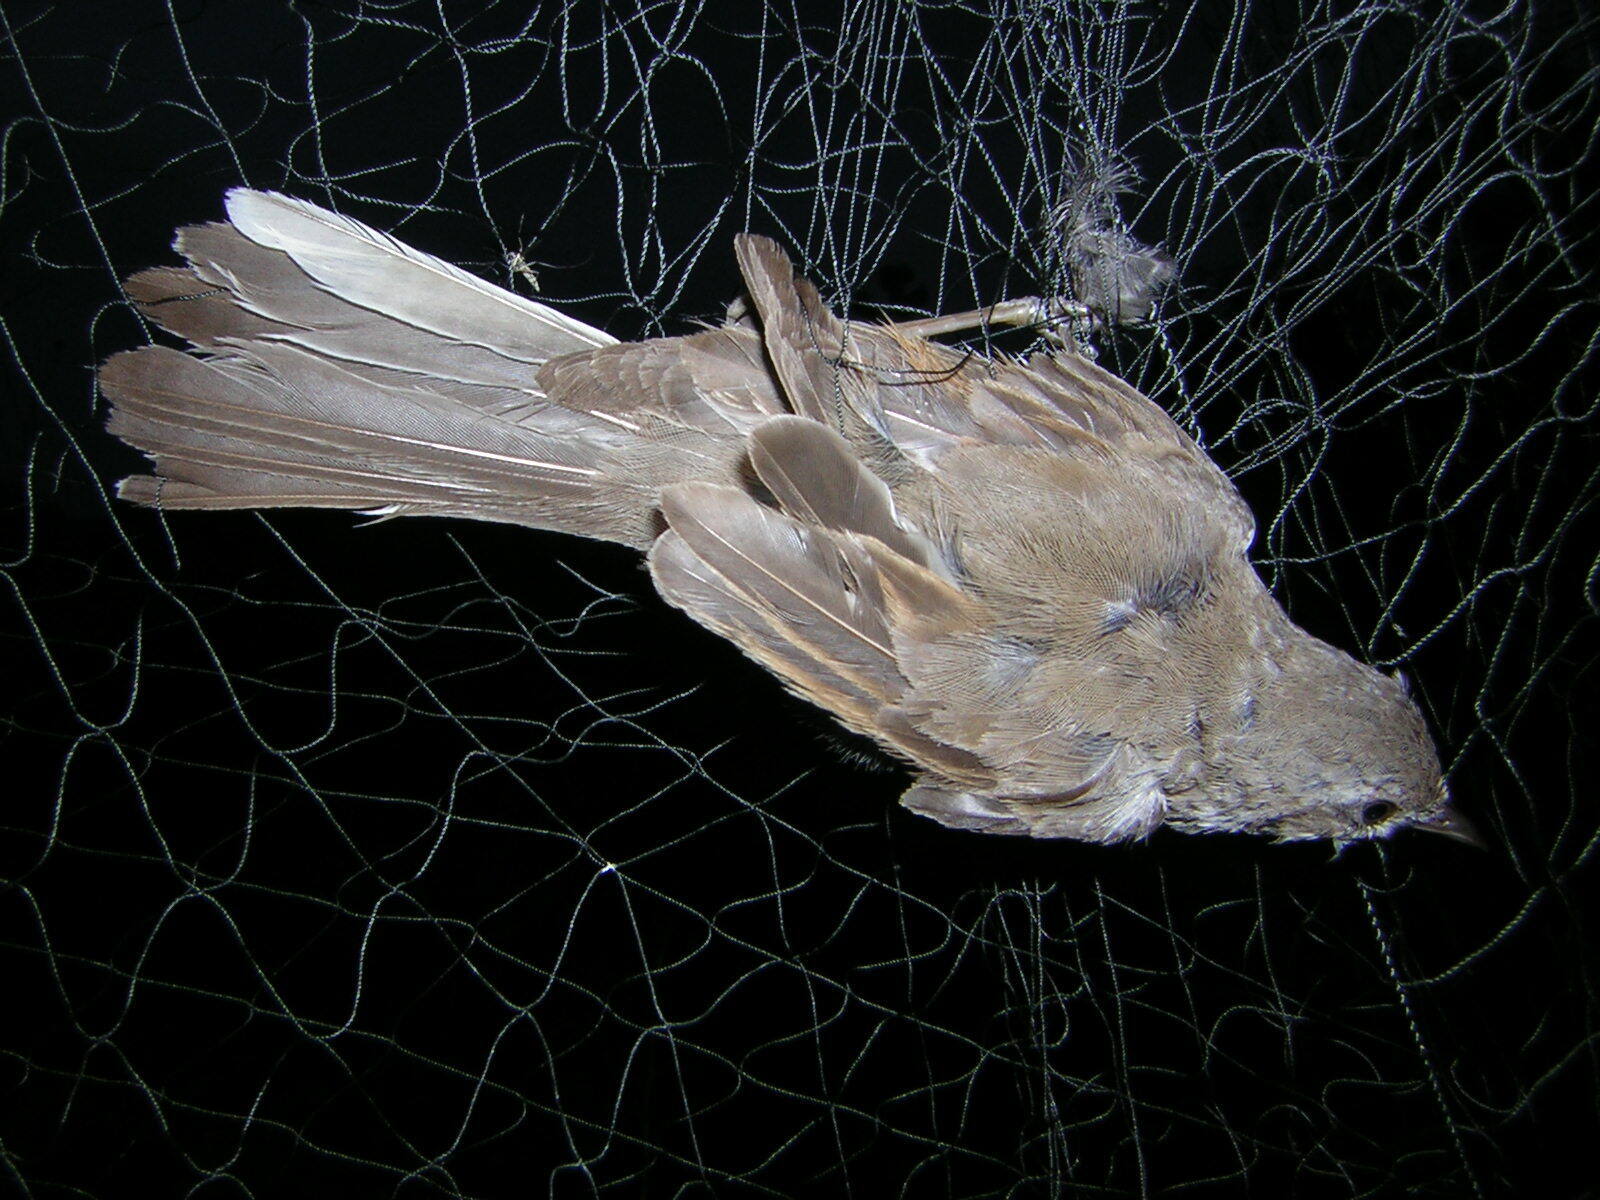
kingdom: Animalia
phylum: Chordata
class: Aves
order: Passeriformes
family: Sylviidae
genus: Sylvia
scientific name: Sylvia communis
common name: Common whitethroat
